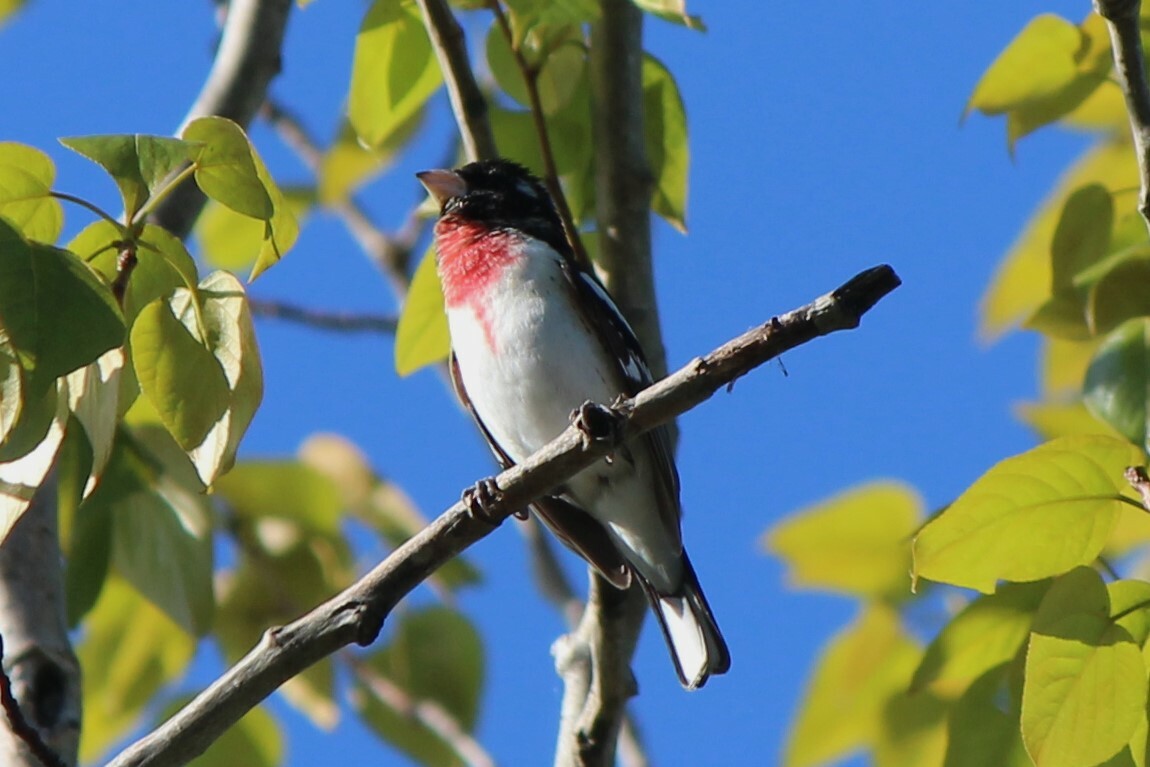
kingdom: Animalia
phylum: Chordata
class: Aves
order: Passeriformes
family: Cardinalidae
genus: Pheucticus
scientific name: Pheucticus ludovicianus
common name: Rose-breasted grosbeak
